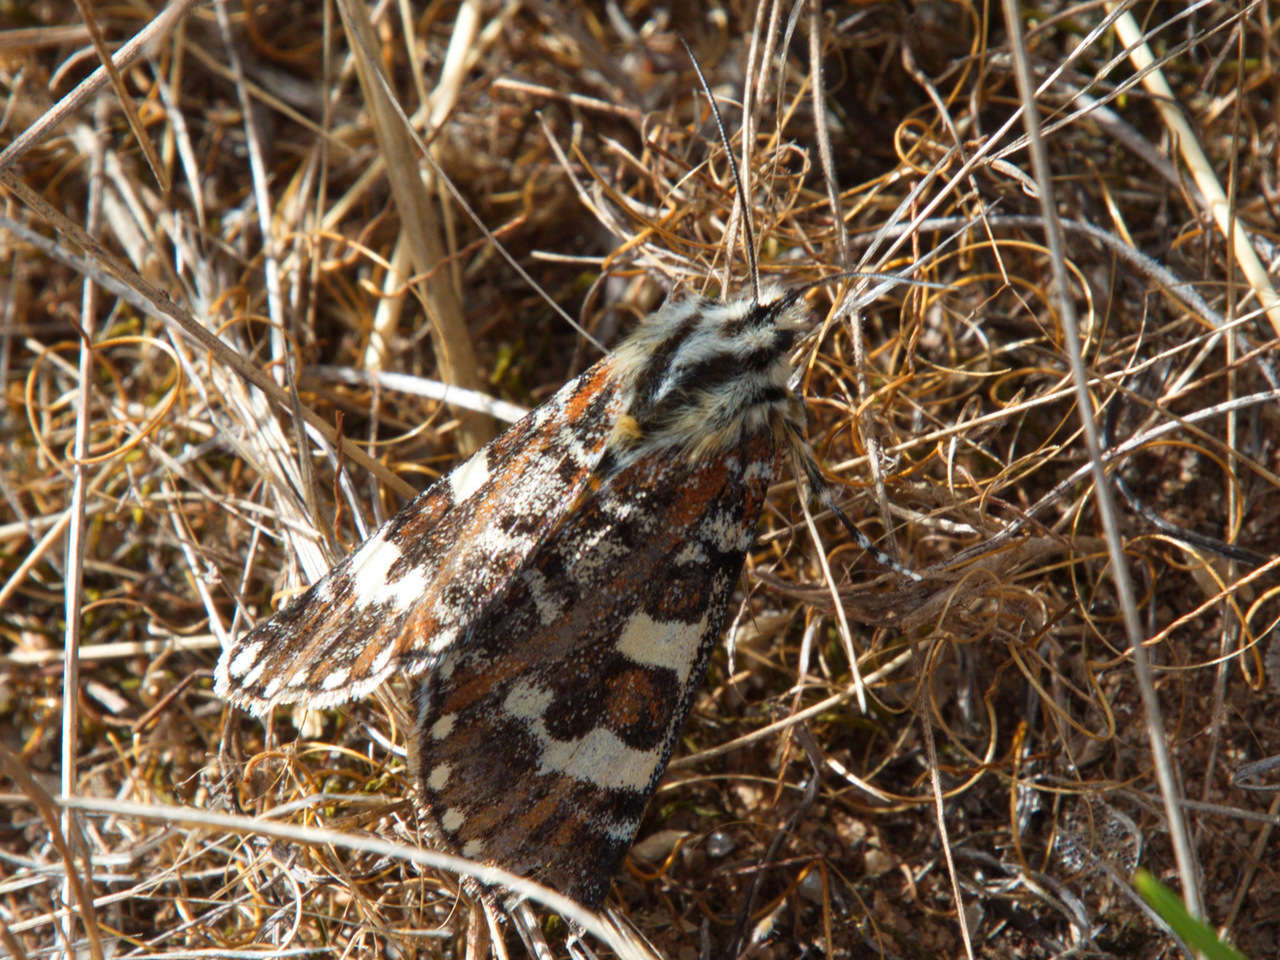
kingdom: Animalia
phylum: Arthropoda
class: Insecta
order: Lepidoptera
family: Noctuidae
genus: Apina
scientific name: Apina callisto
